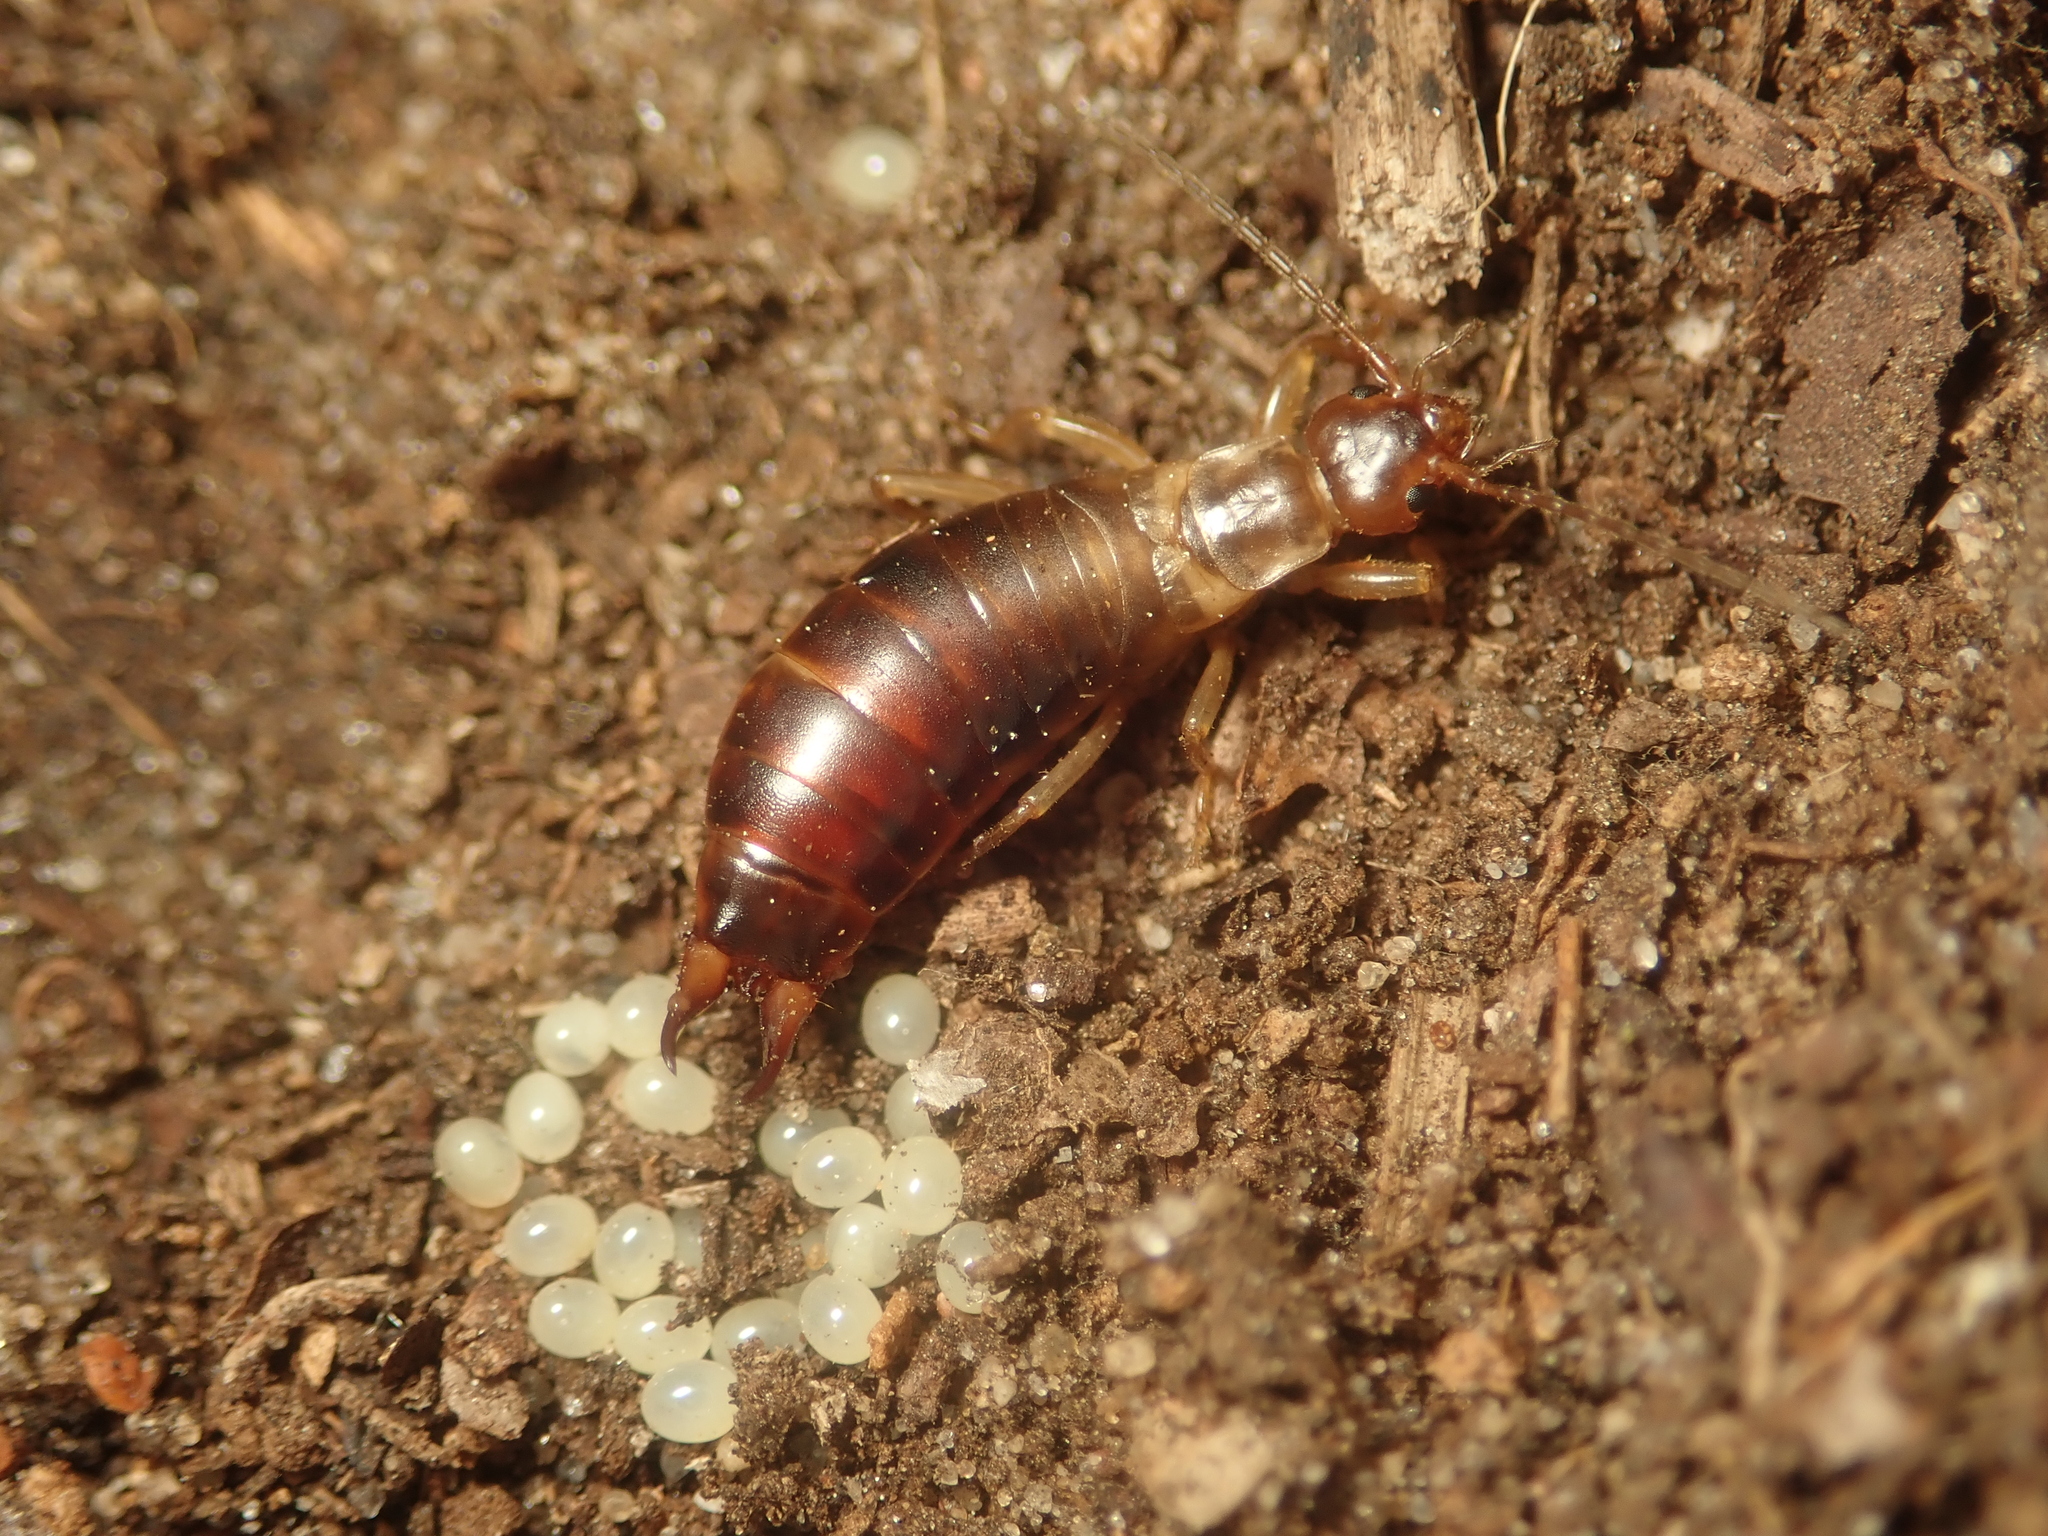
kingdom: Animalia
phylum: Arthropoda
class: Insecta
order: Dermaptera
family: Forficulidae
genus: Chelidurella
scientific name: Chelidurella acanthopygia
